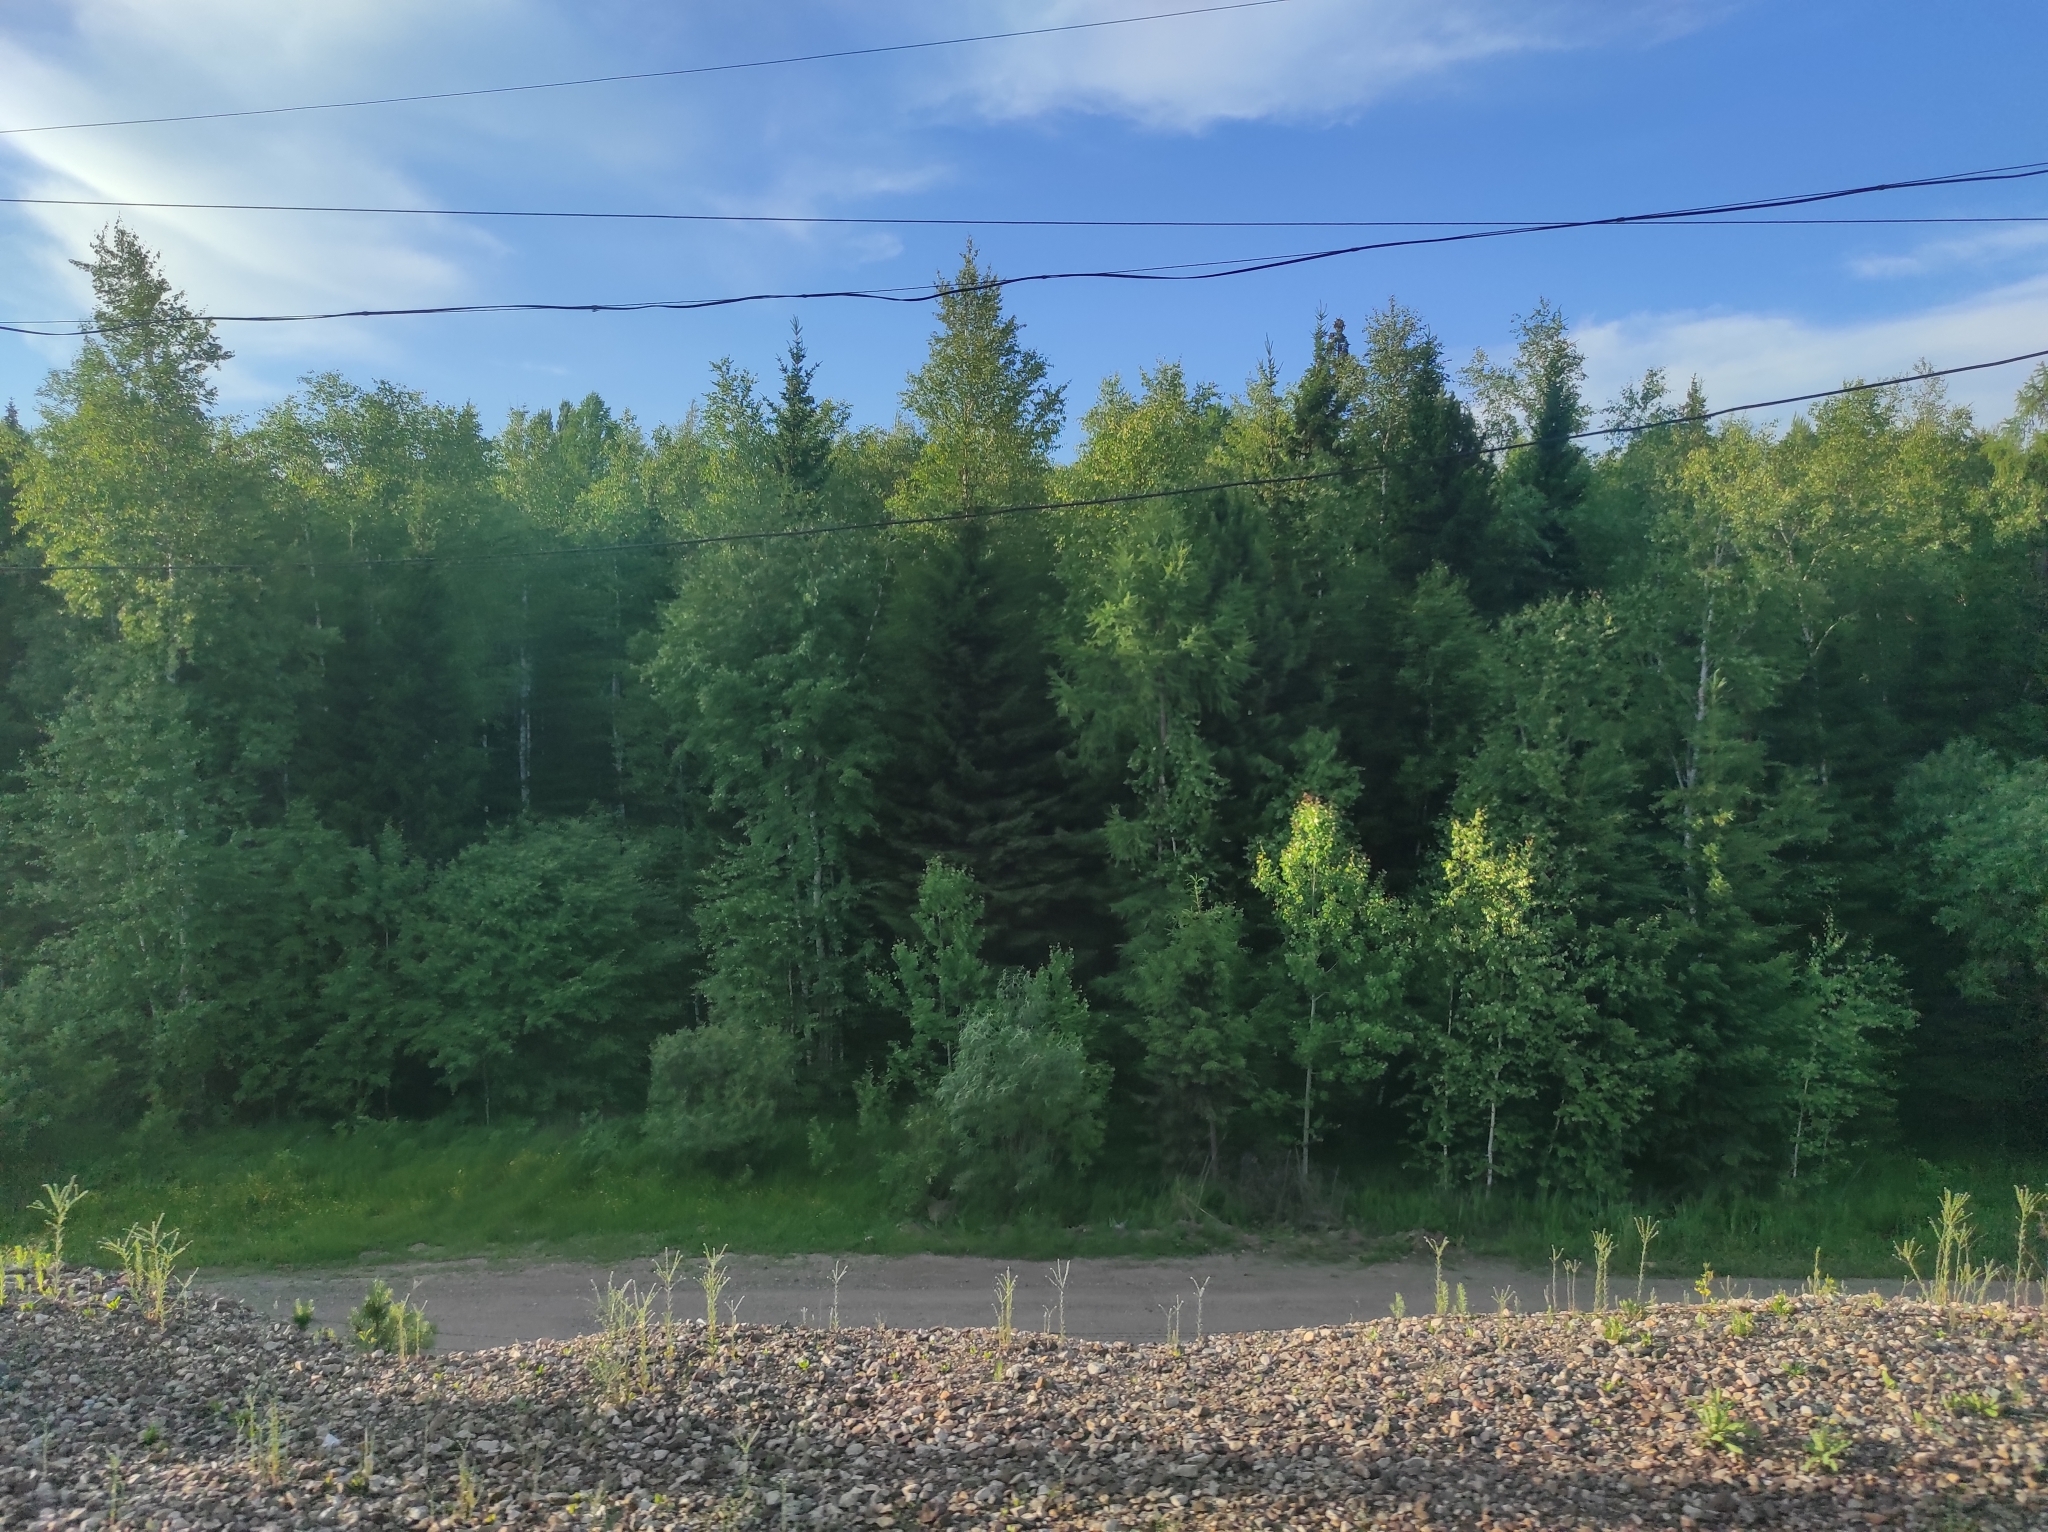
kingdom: Plantae
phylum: Tracheophyta
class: Pinopsida
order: Pinales
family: Pinaceae
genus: Picea
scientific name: Picea obovata
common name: Siberian spruce
